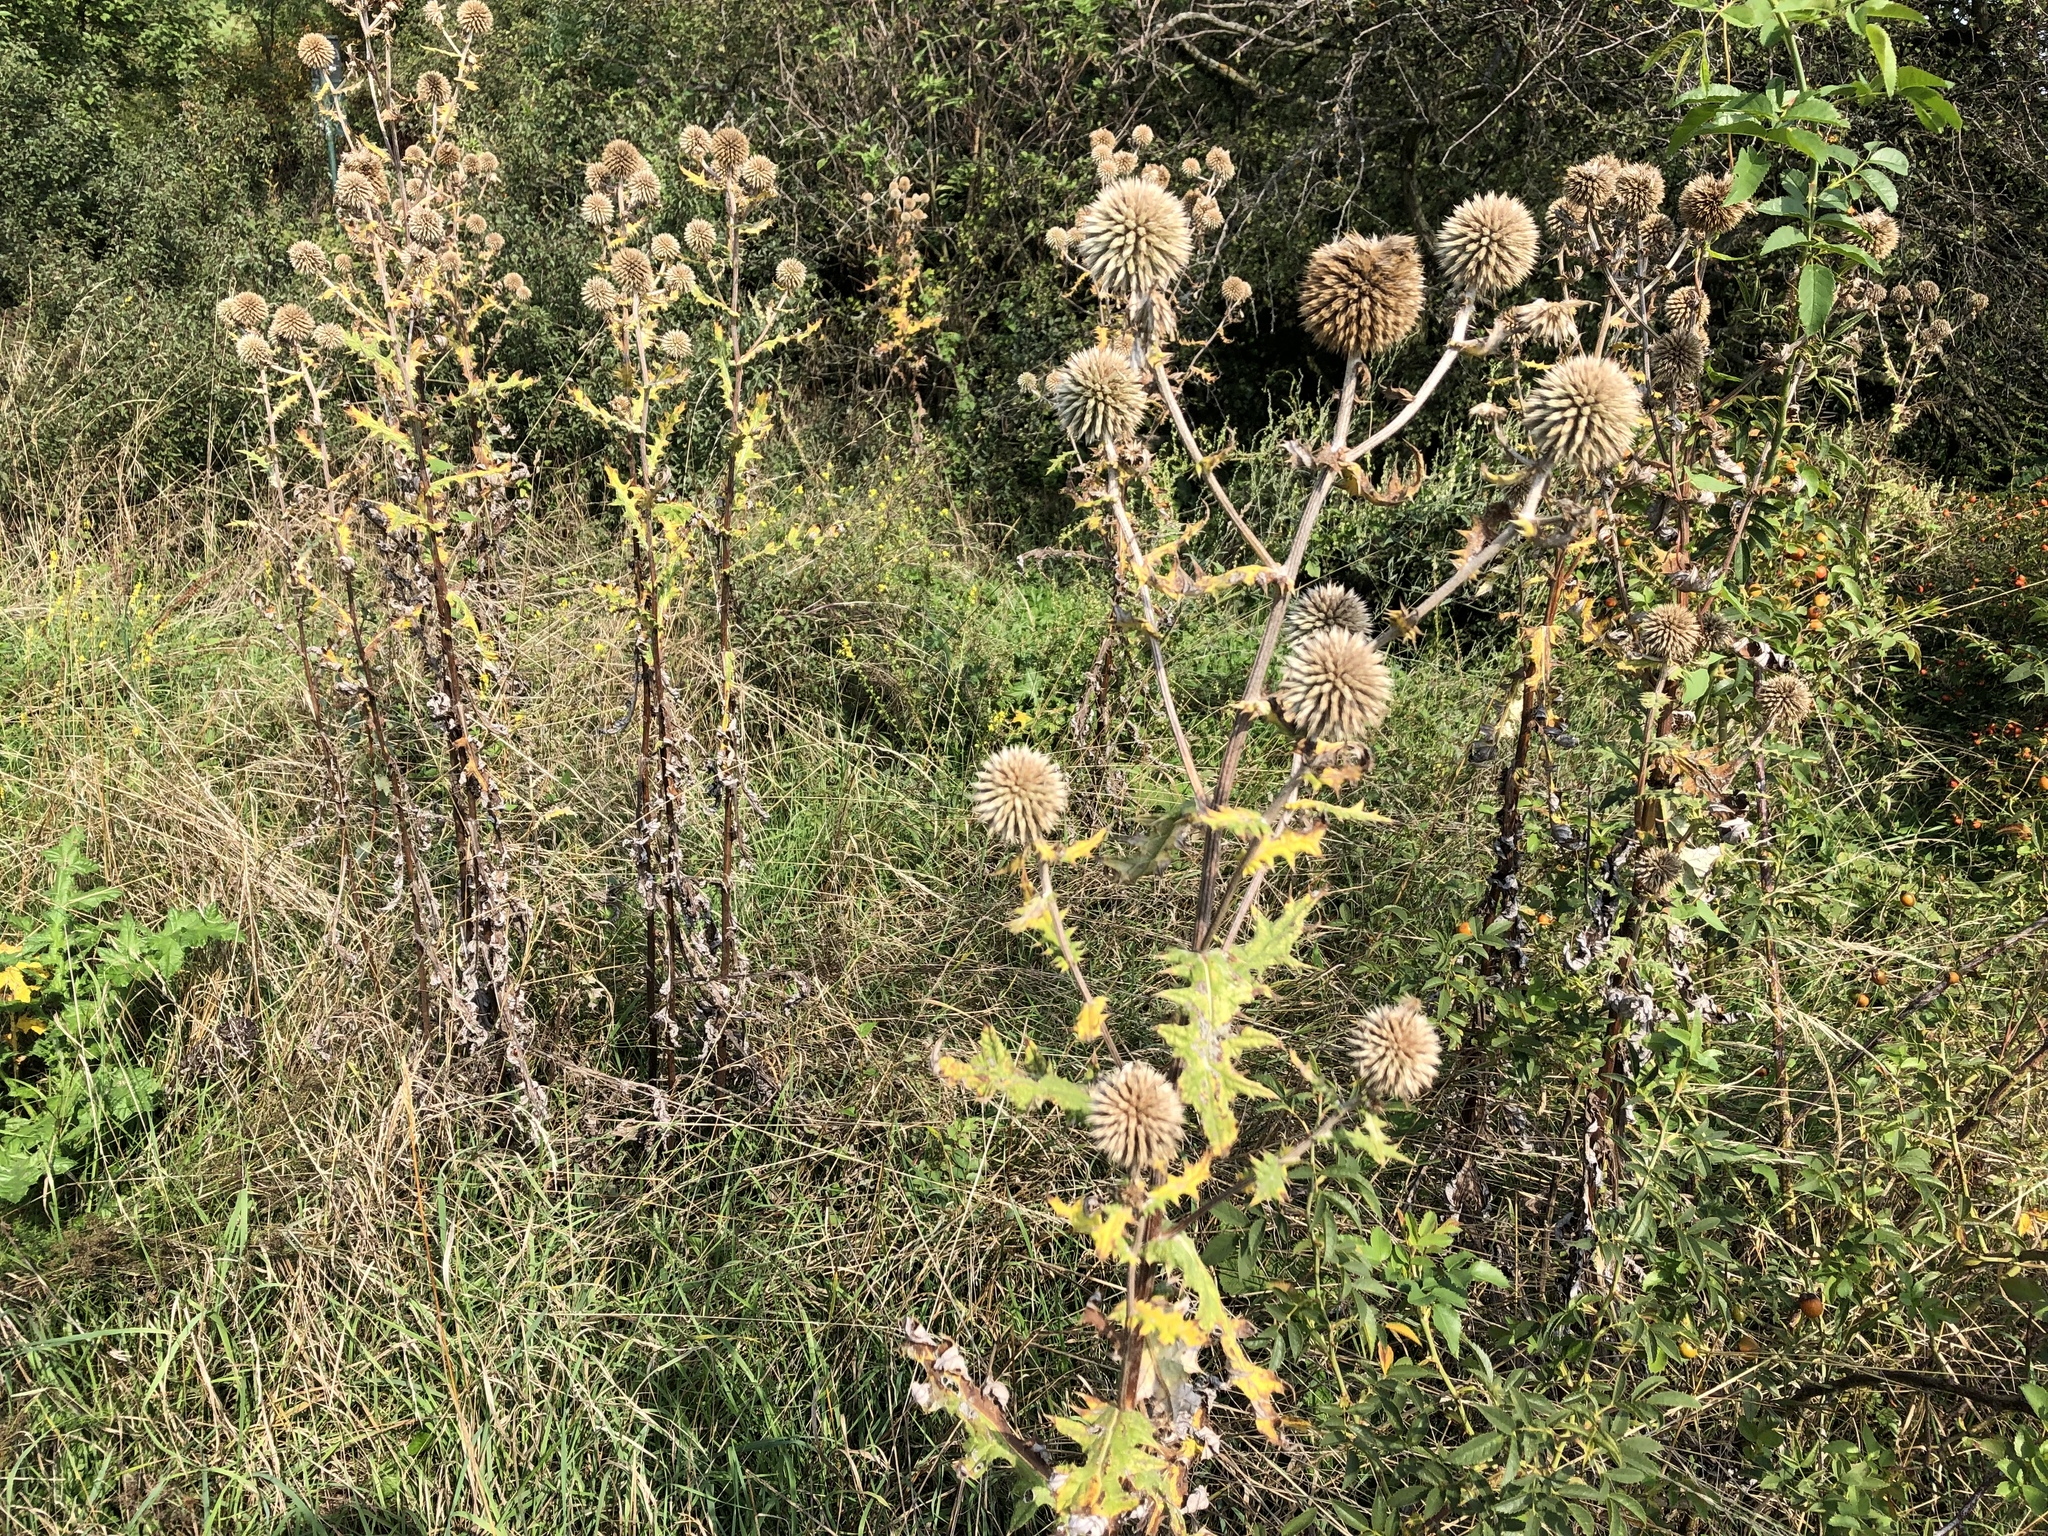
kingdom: Plantae
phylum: Tracheophyta
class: Magnoliopsida
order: Asterales
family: Asteraceae
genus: Echinops
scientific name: Echinops sphaerocephalus
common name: Glandular globe-thistle
